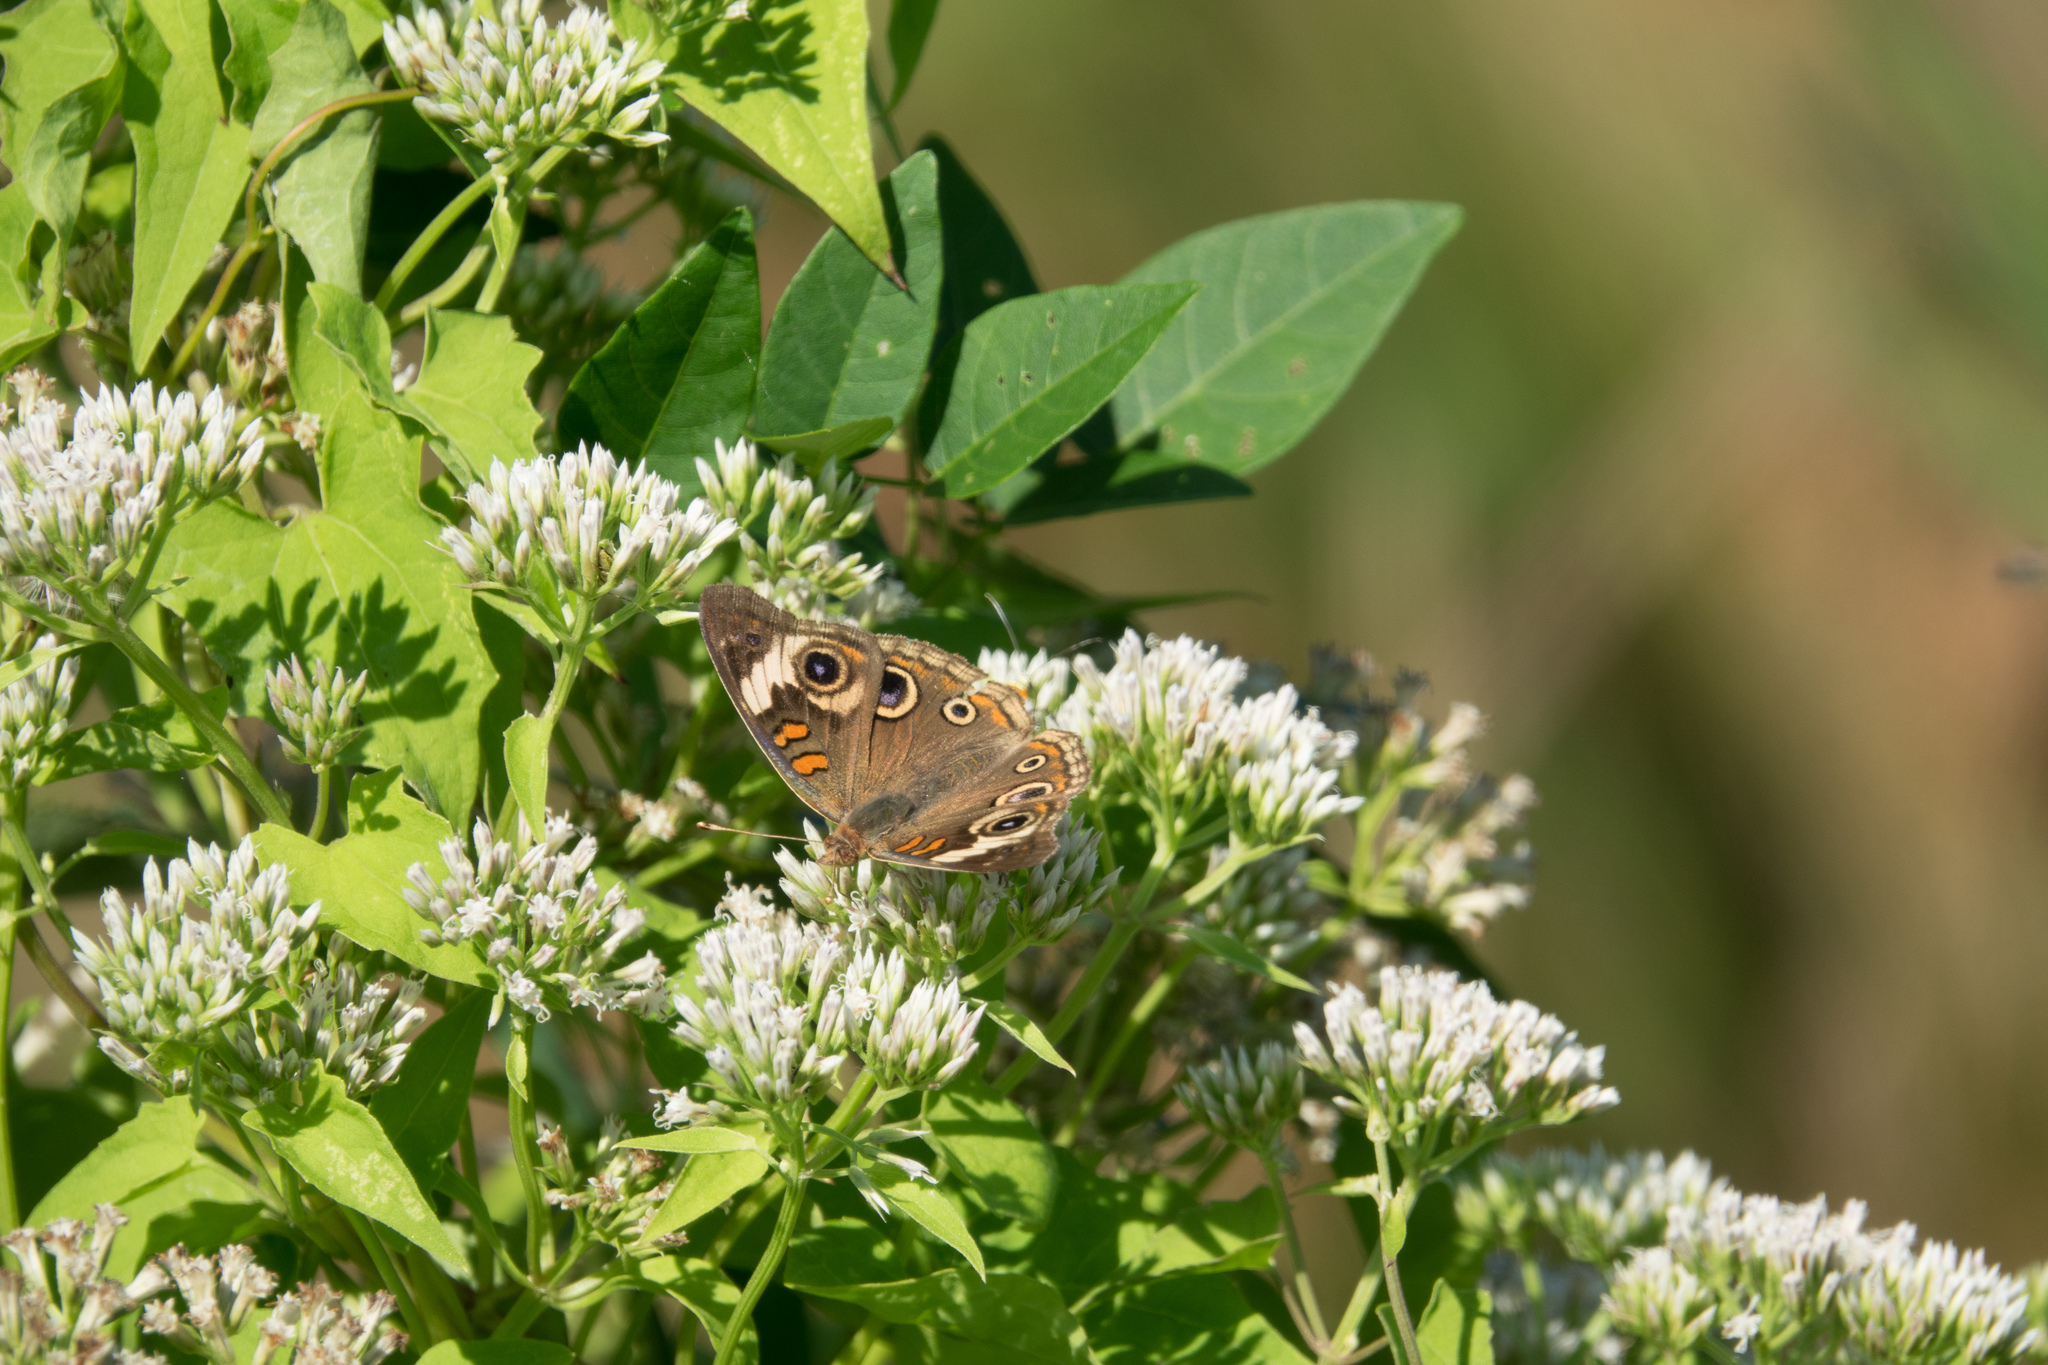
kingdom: Animalia
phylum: Arthropoda
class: Insecta
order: Lepidoptera
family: Nymphalidae
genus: Junonia
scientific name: Junonia coenia
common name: Common buckeye
